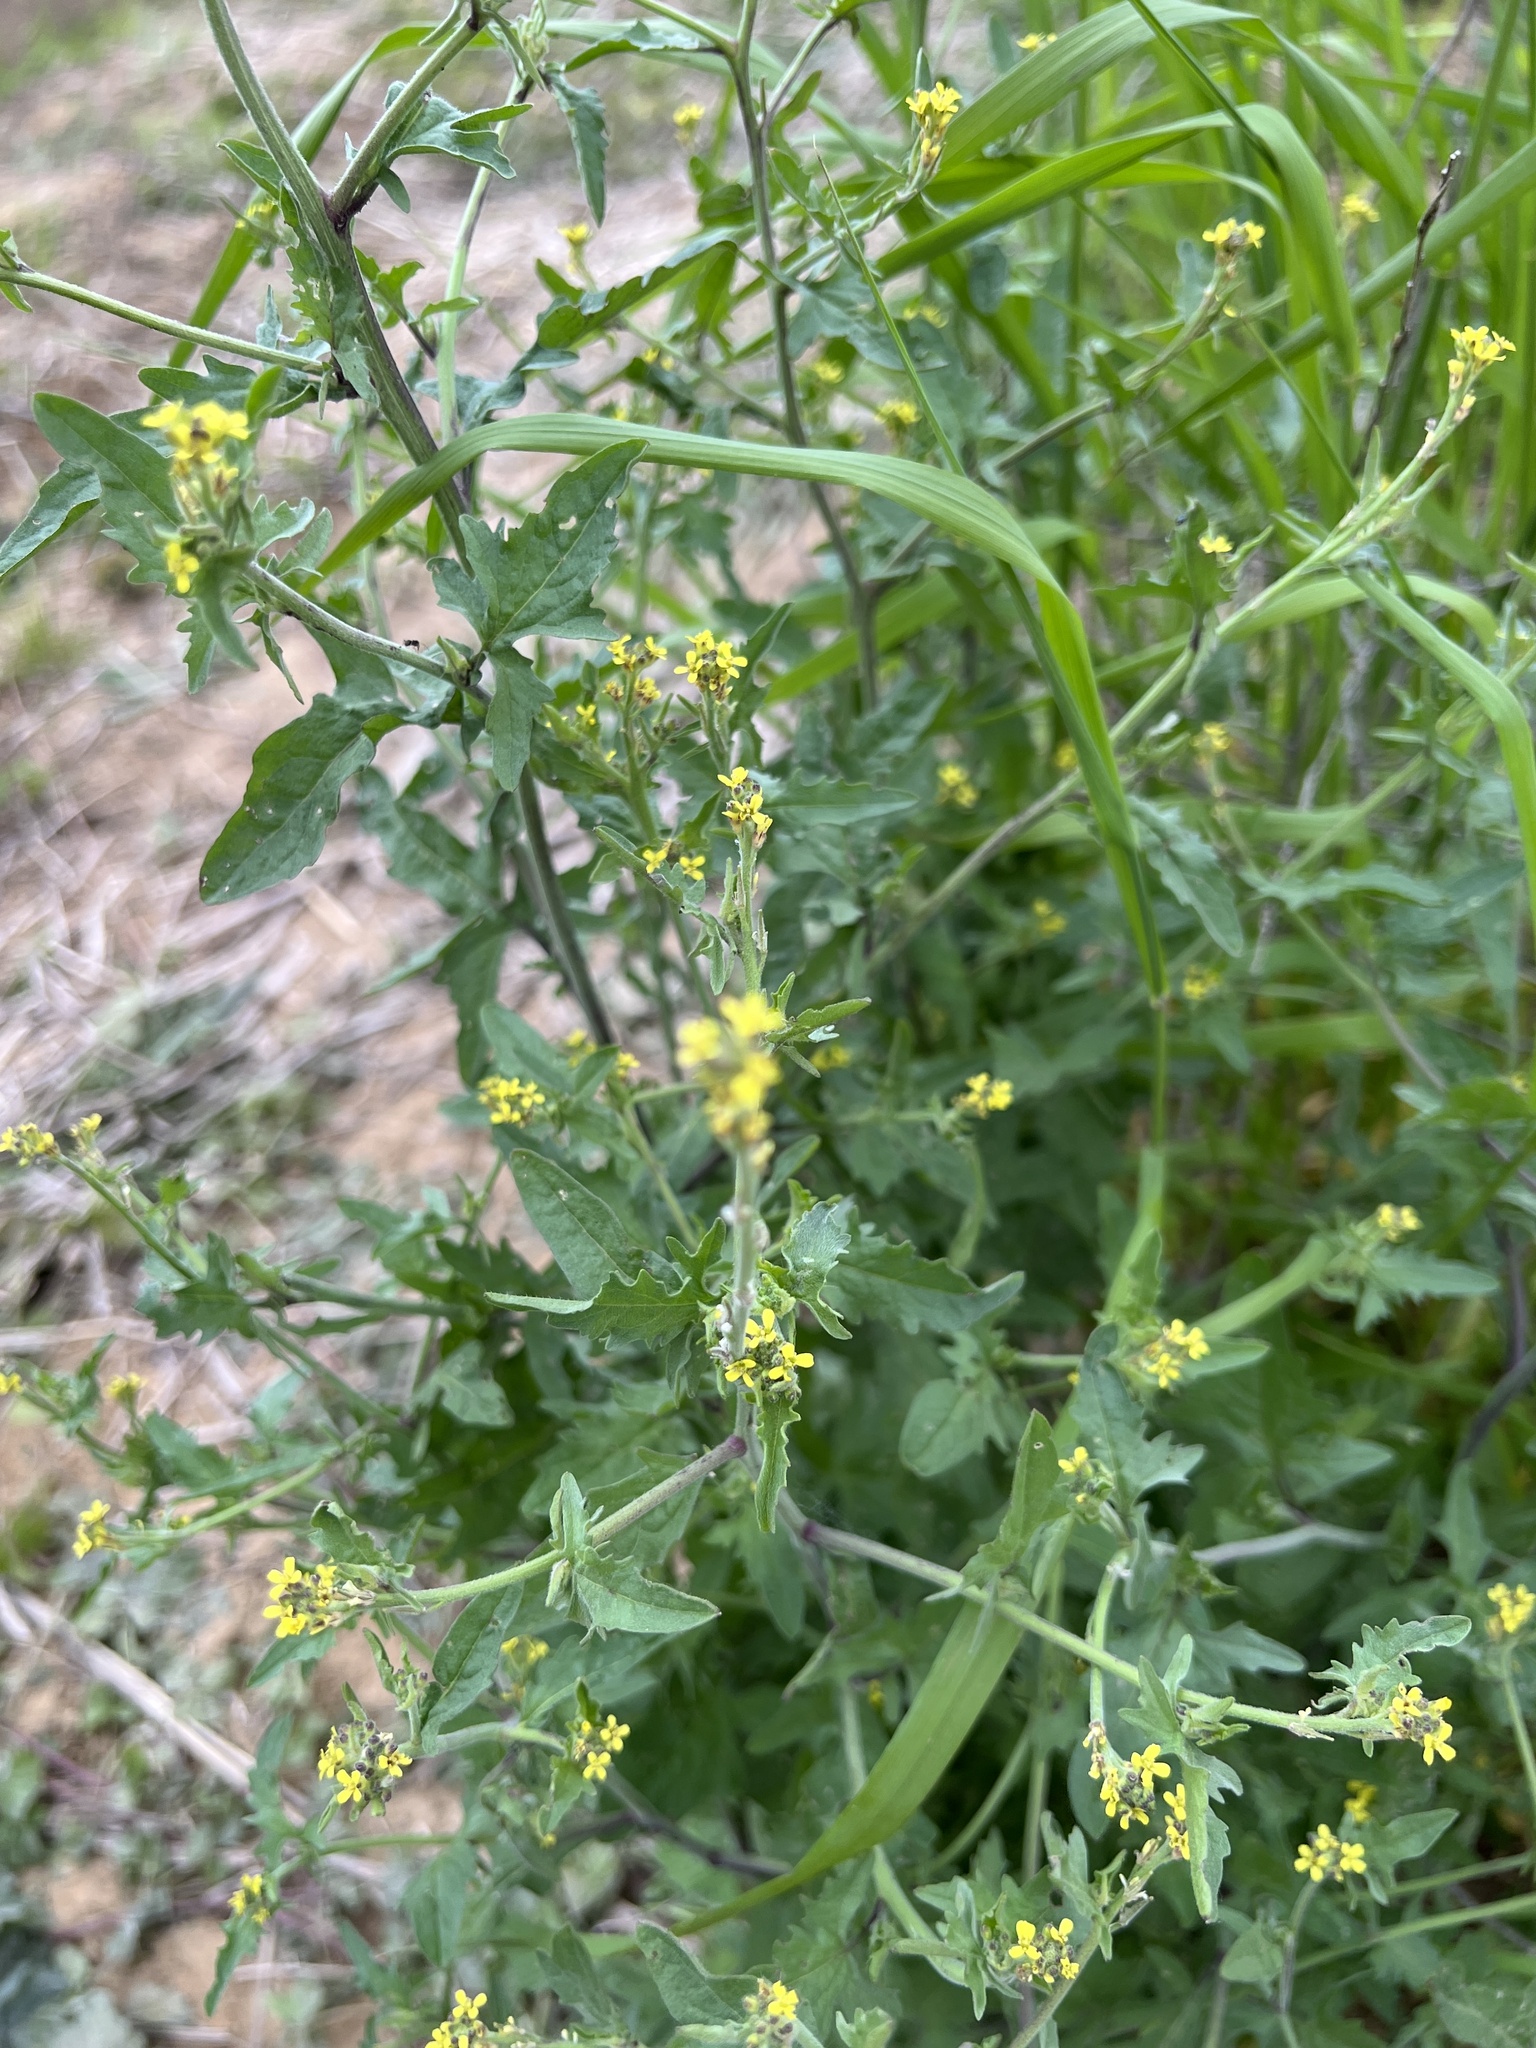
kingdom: Plantae
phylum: Tracheophyta
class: Magnoliopsida
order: Brassicales
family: Brassicaceae
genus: Sisymbrium
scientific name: Sisymbrium officinale
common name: Hedge mustard
